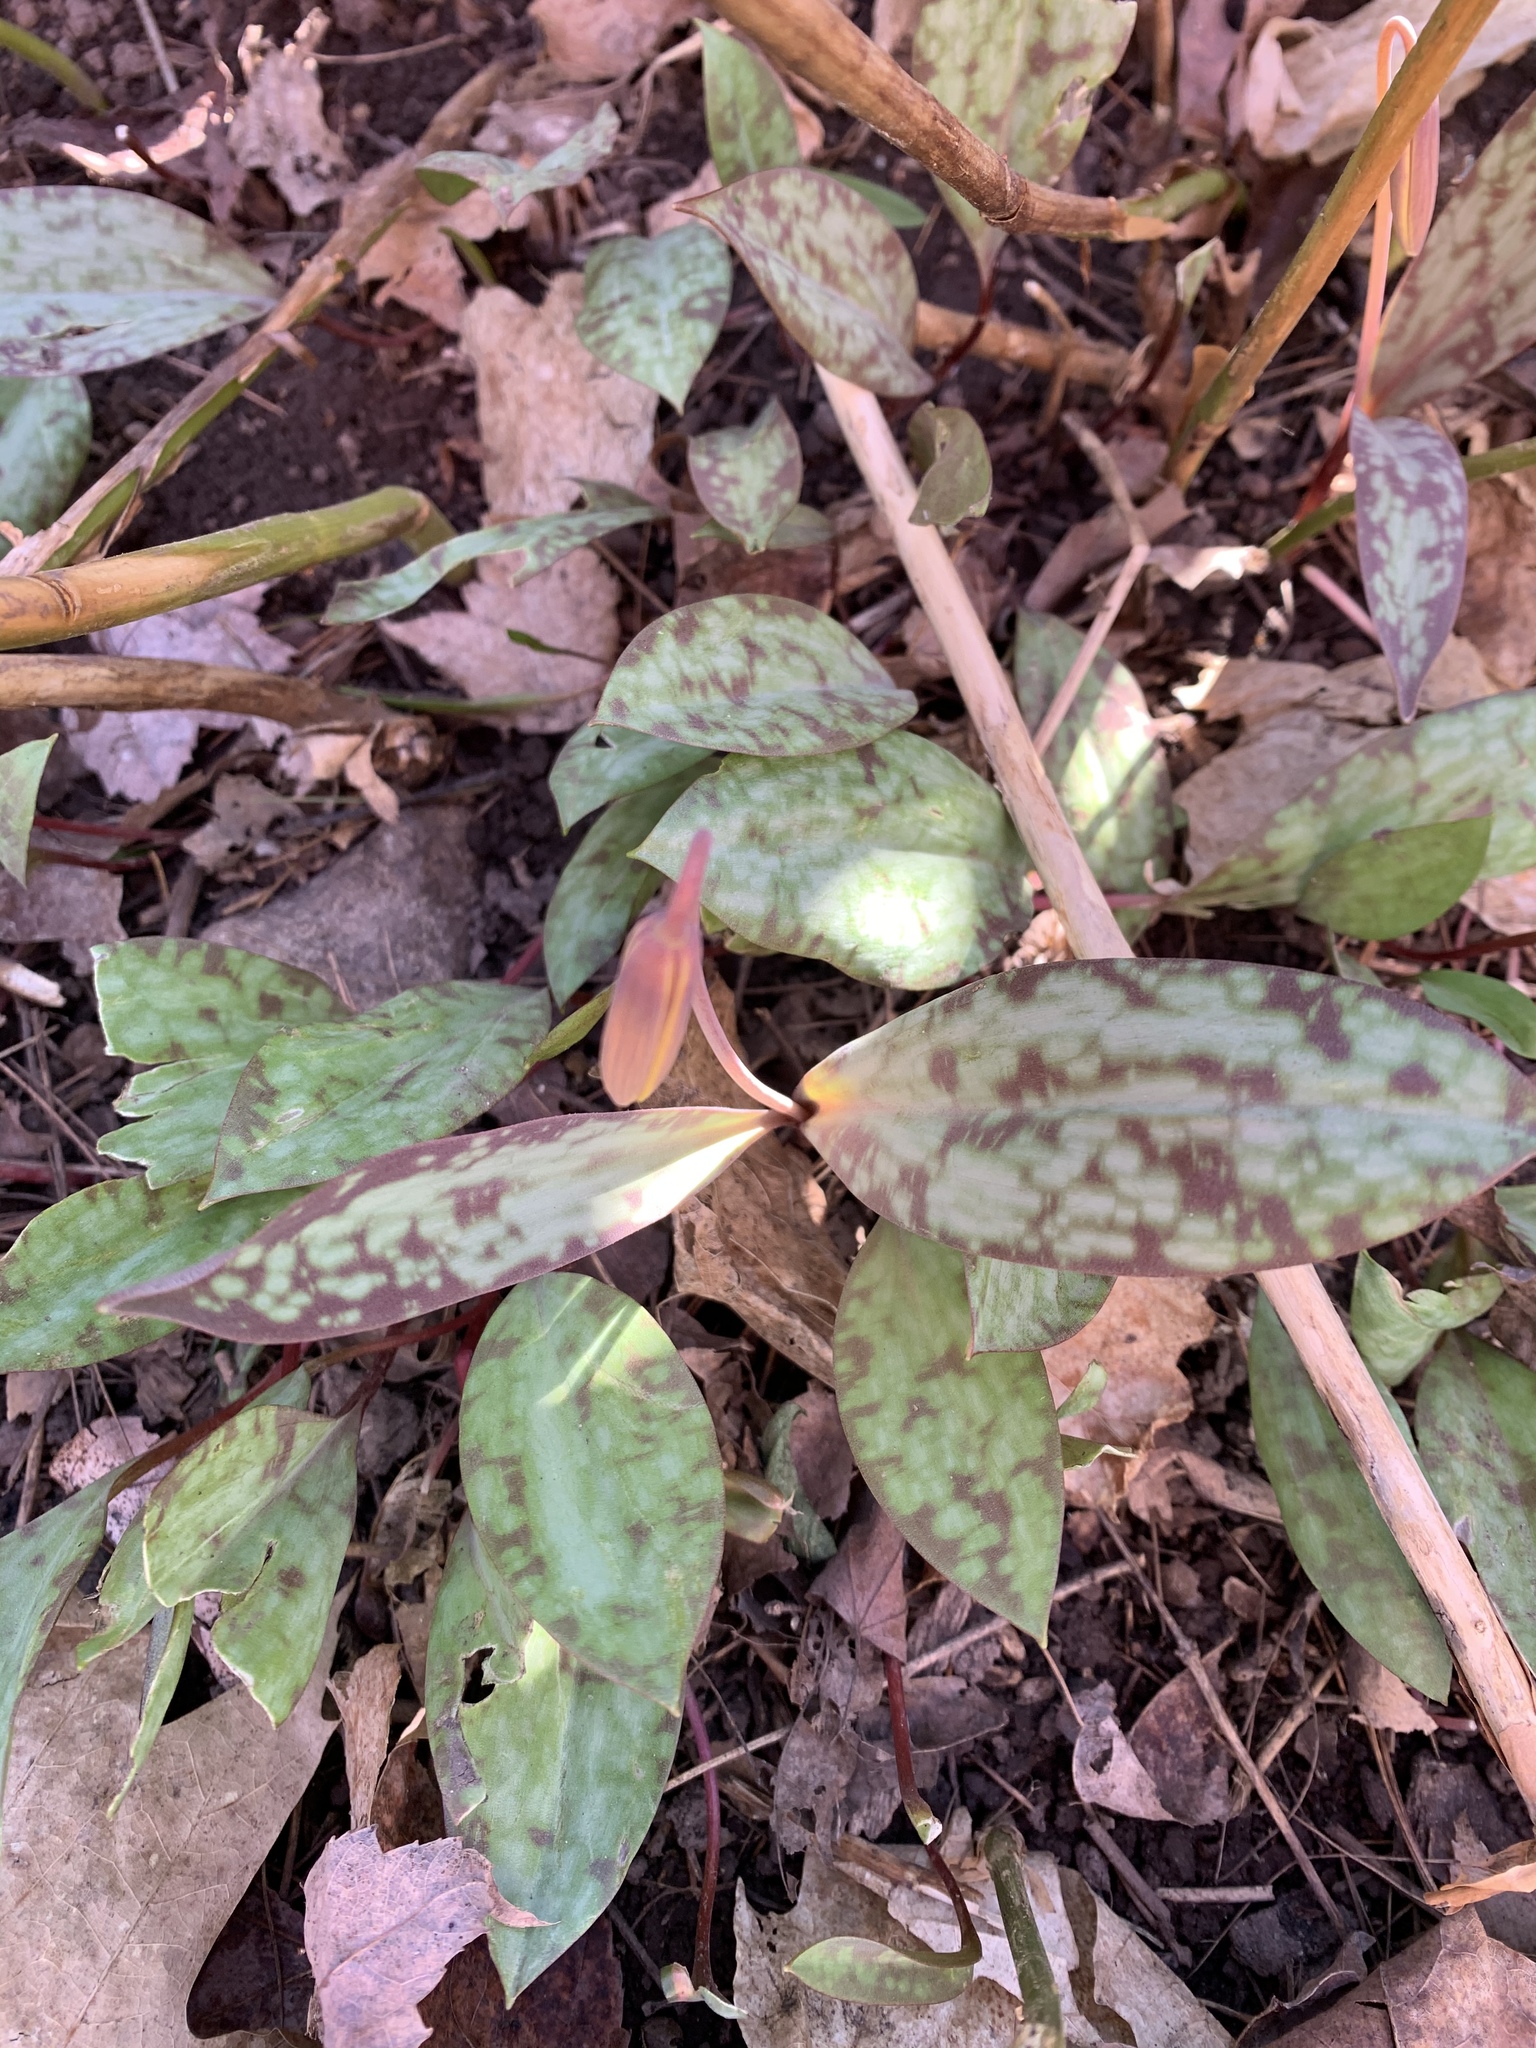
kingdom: Plantae
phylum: Tracheophyta
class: Liliopsida
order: Liliales
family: Liliaceae
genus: Erythronium
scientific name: Erythronium americanum
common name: Yellow adder's-tongue
